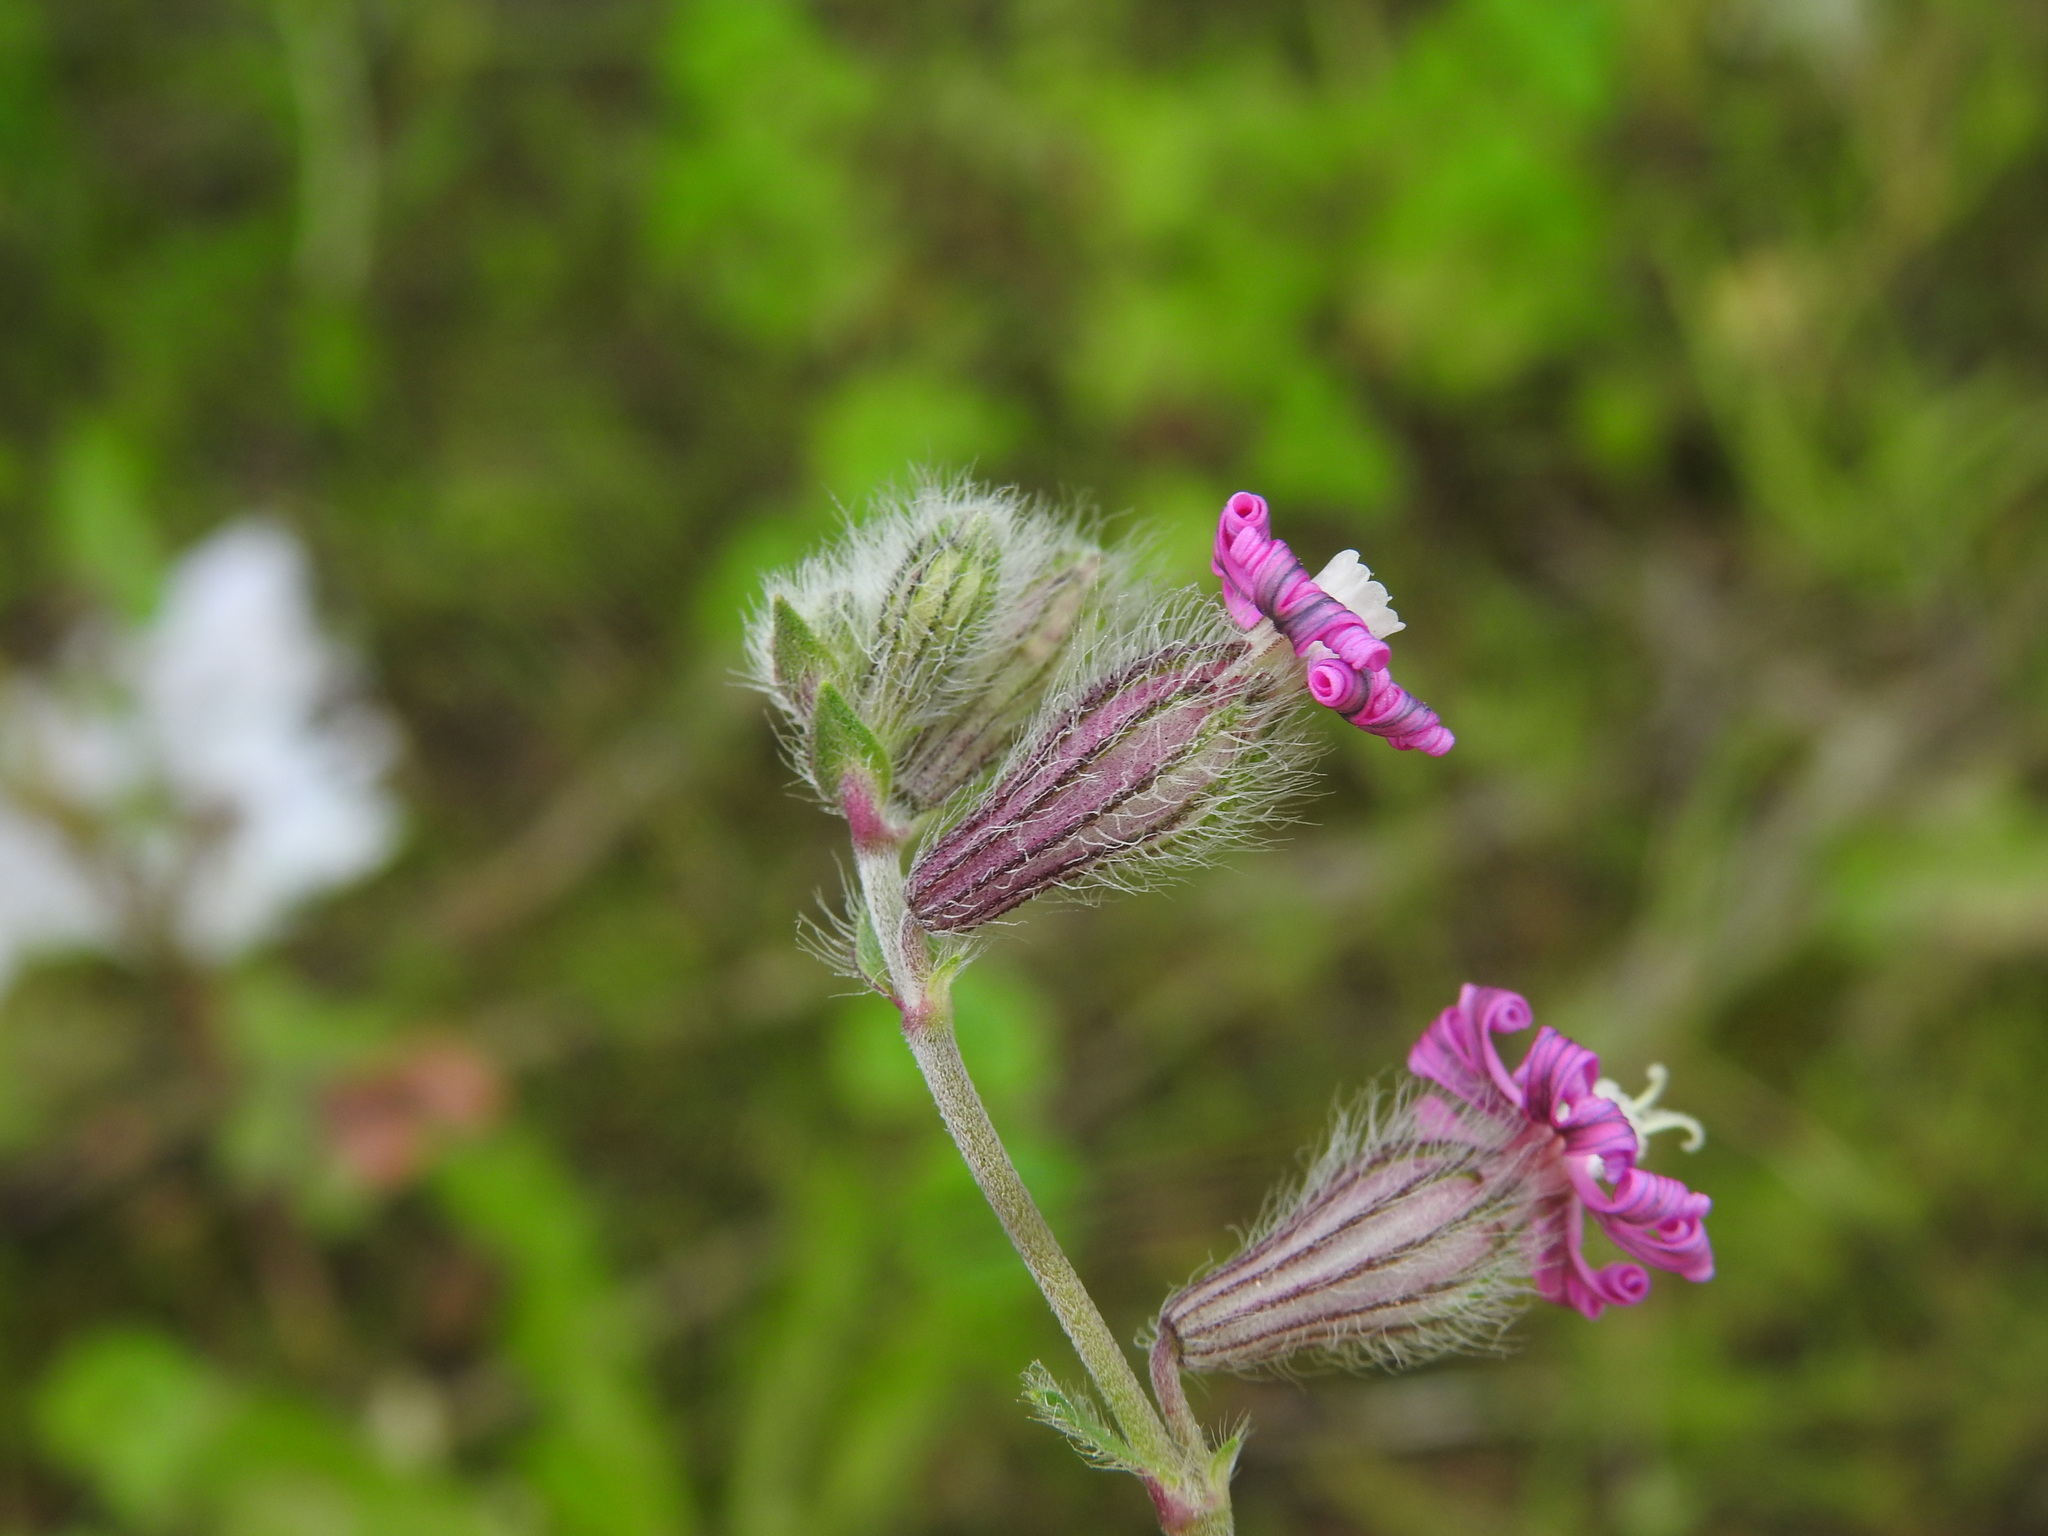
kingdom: Plantae
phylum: Tracheophyta
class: Magnoliopsida
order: Caryophyllales
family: Caryophyllaceae
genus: Silene
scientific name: Silene colorata
